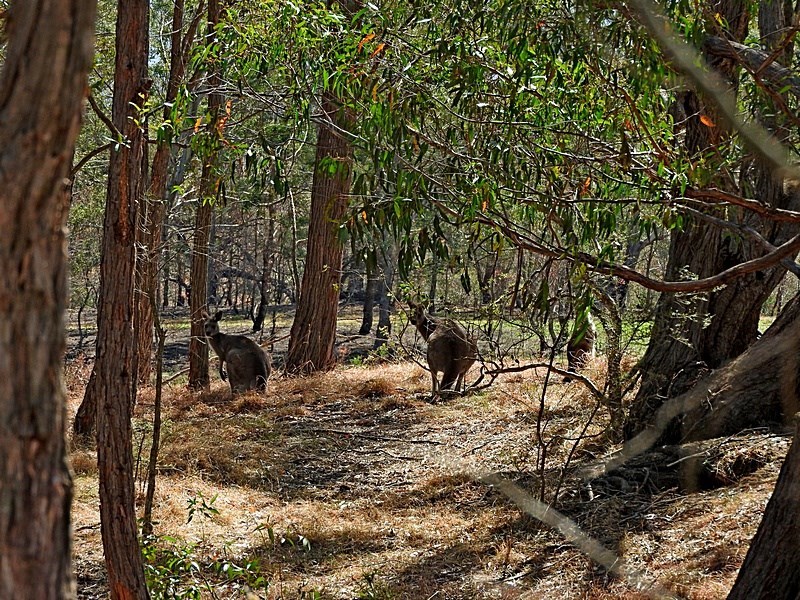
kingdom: Animalia
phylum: Chordata
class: Mammalia
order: Diprotodontia
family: Macropodidae
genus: Macropus
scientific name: Macropus giganteus
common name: Eastern grey kangaroo
